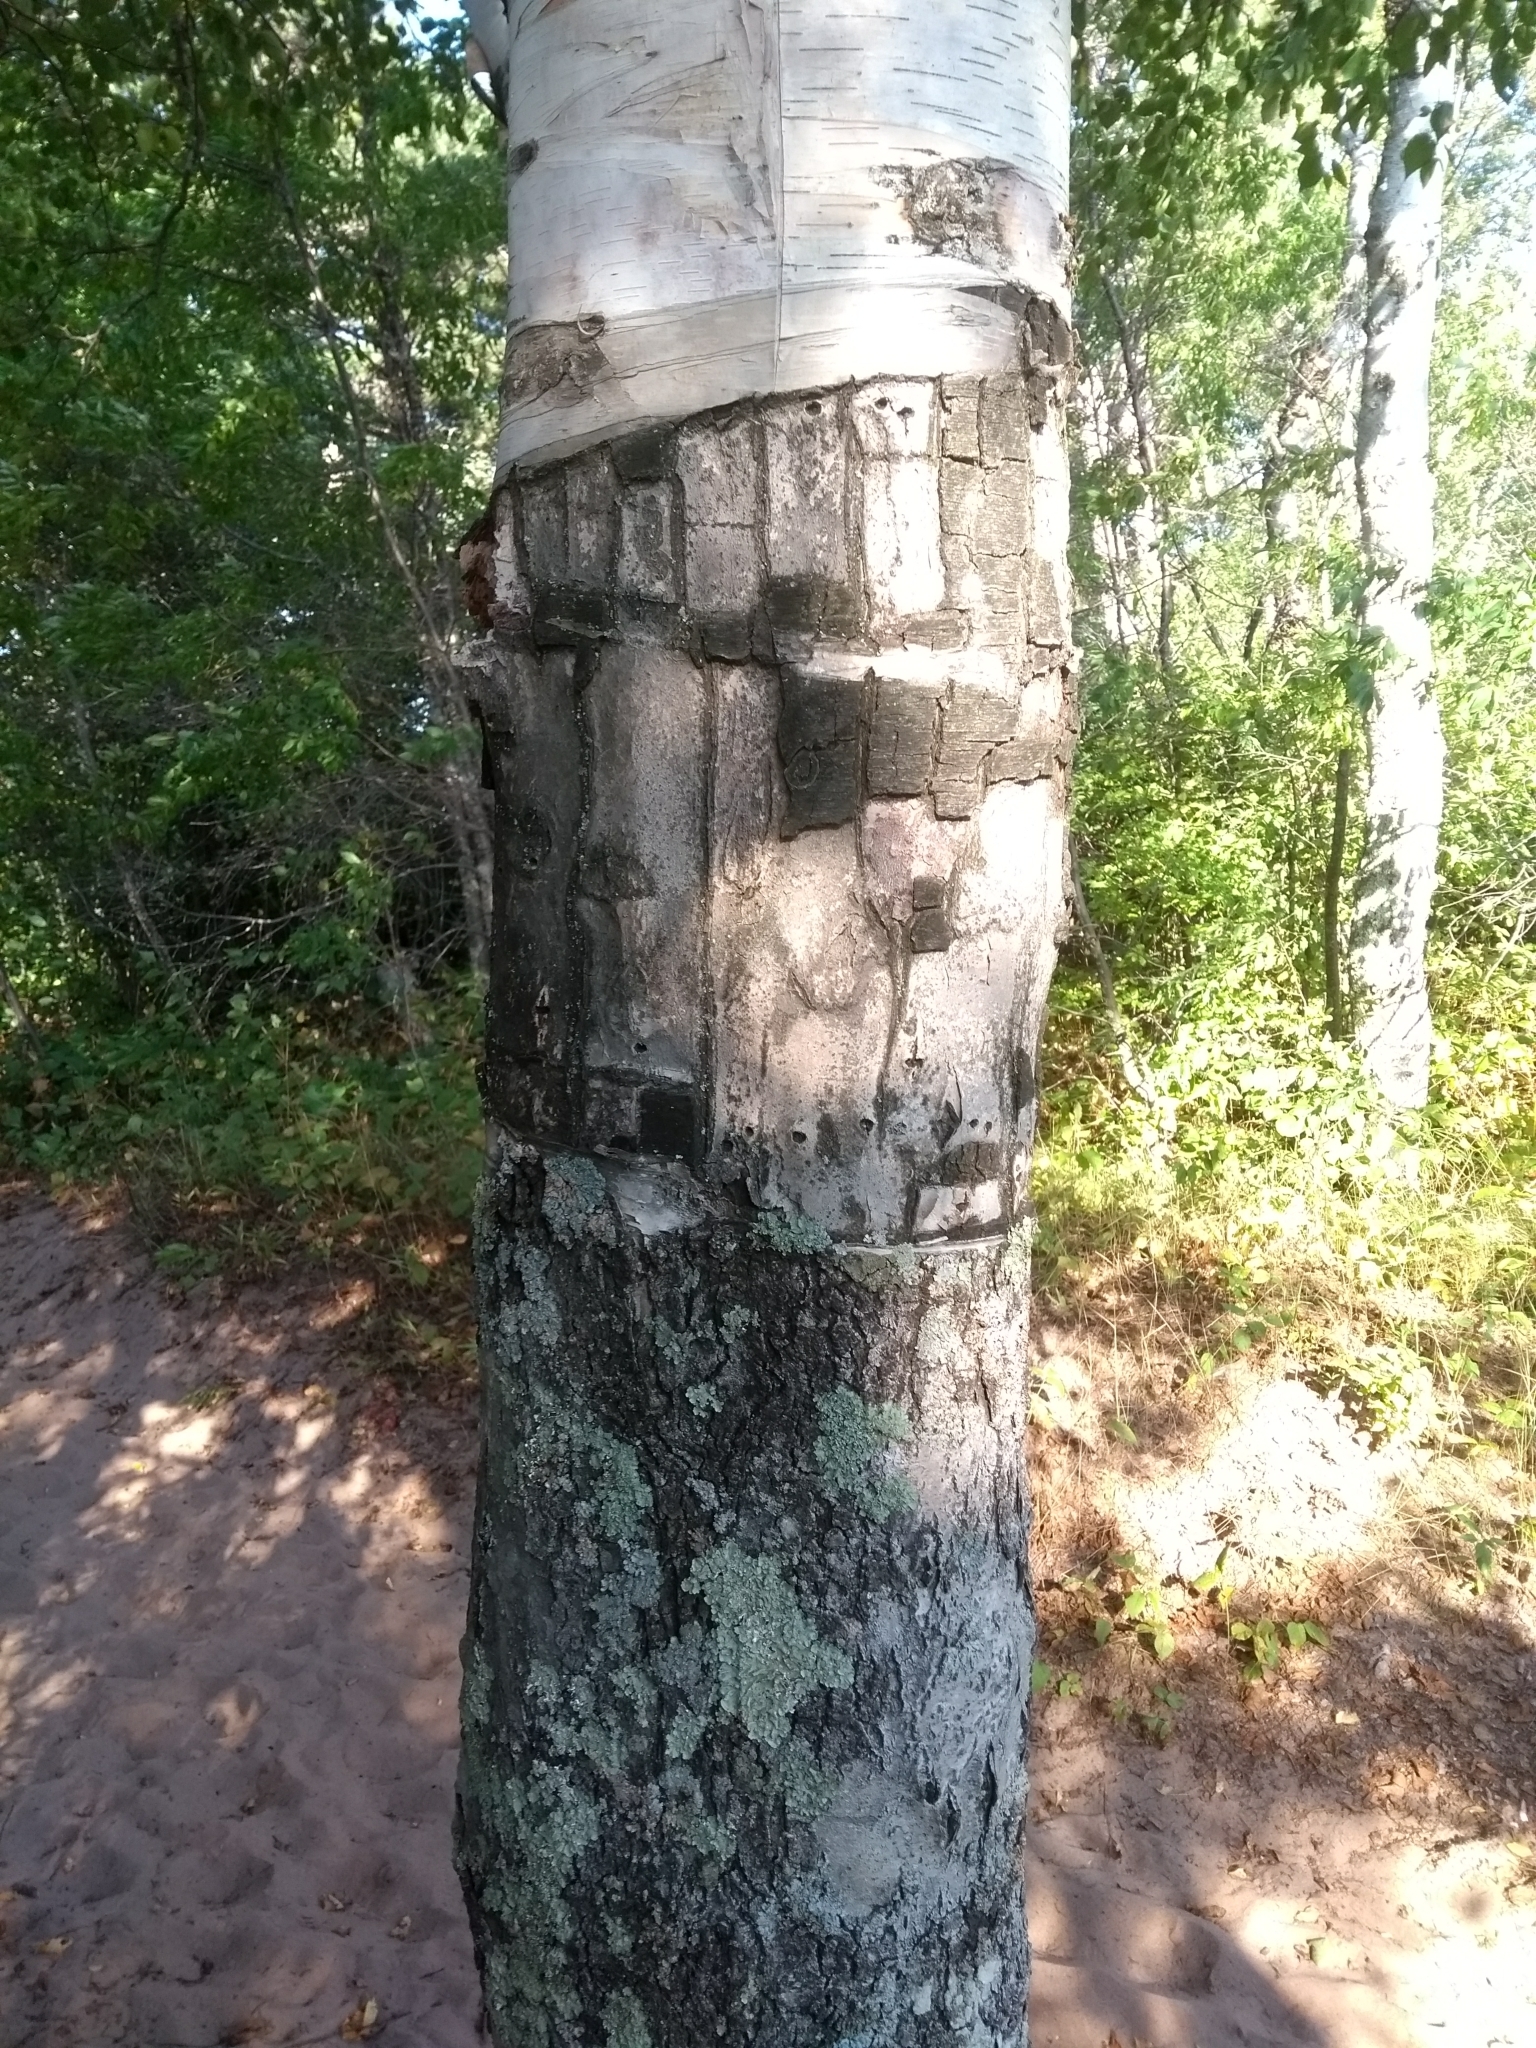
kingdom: Plantae
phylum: Tracheophyta
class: Magnoliopsida
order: Fagales
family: Betulaceae
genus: Betula
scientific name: Betula papyrifera
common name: Paper birch
